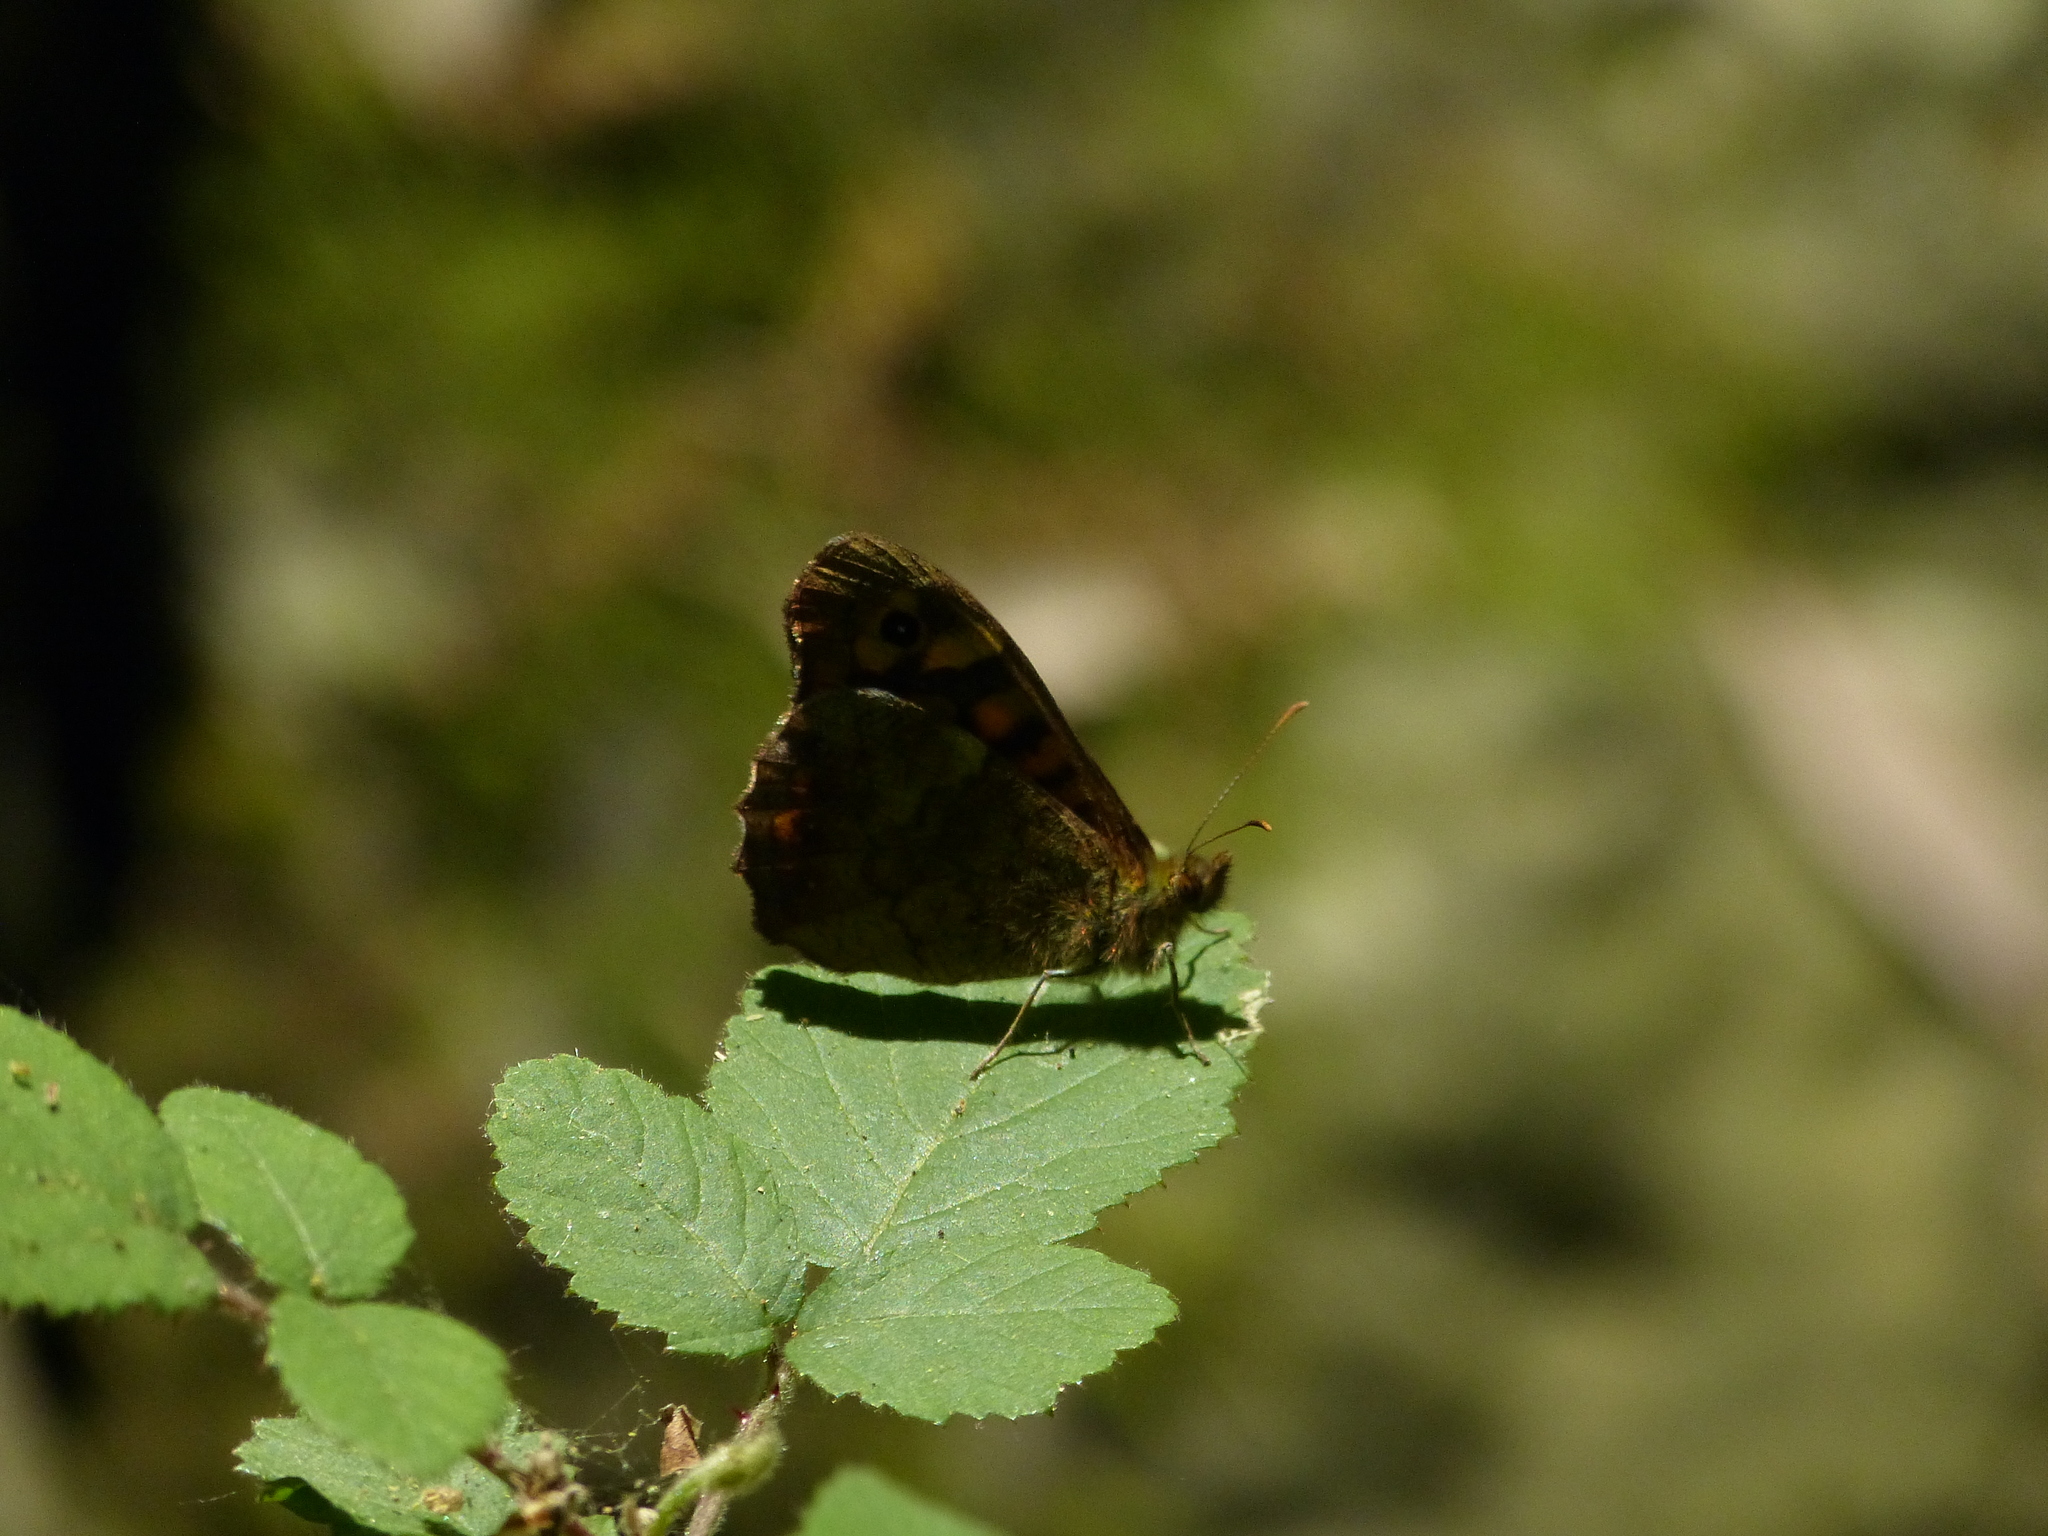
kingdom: Animalia
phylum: Arthropoda
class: Insecta
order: Lepidoptera
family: Nymphalidae
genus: Pararge
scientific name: Pararge aegeria
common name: Speckled wood
